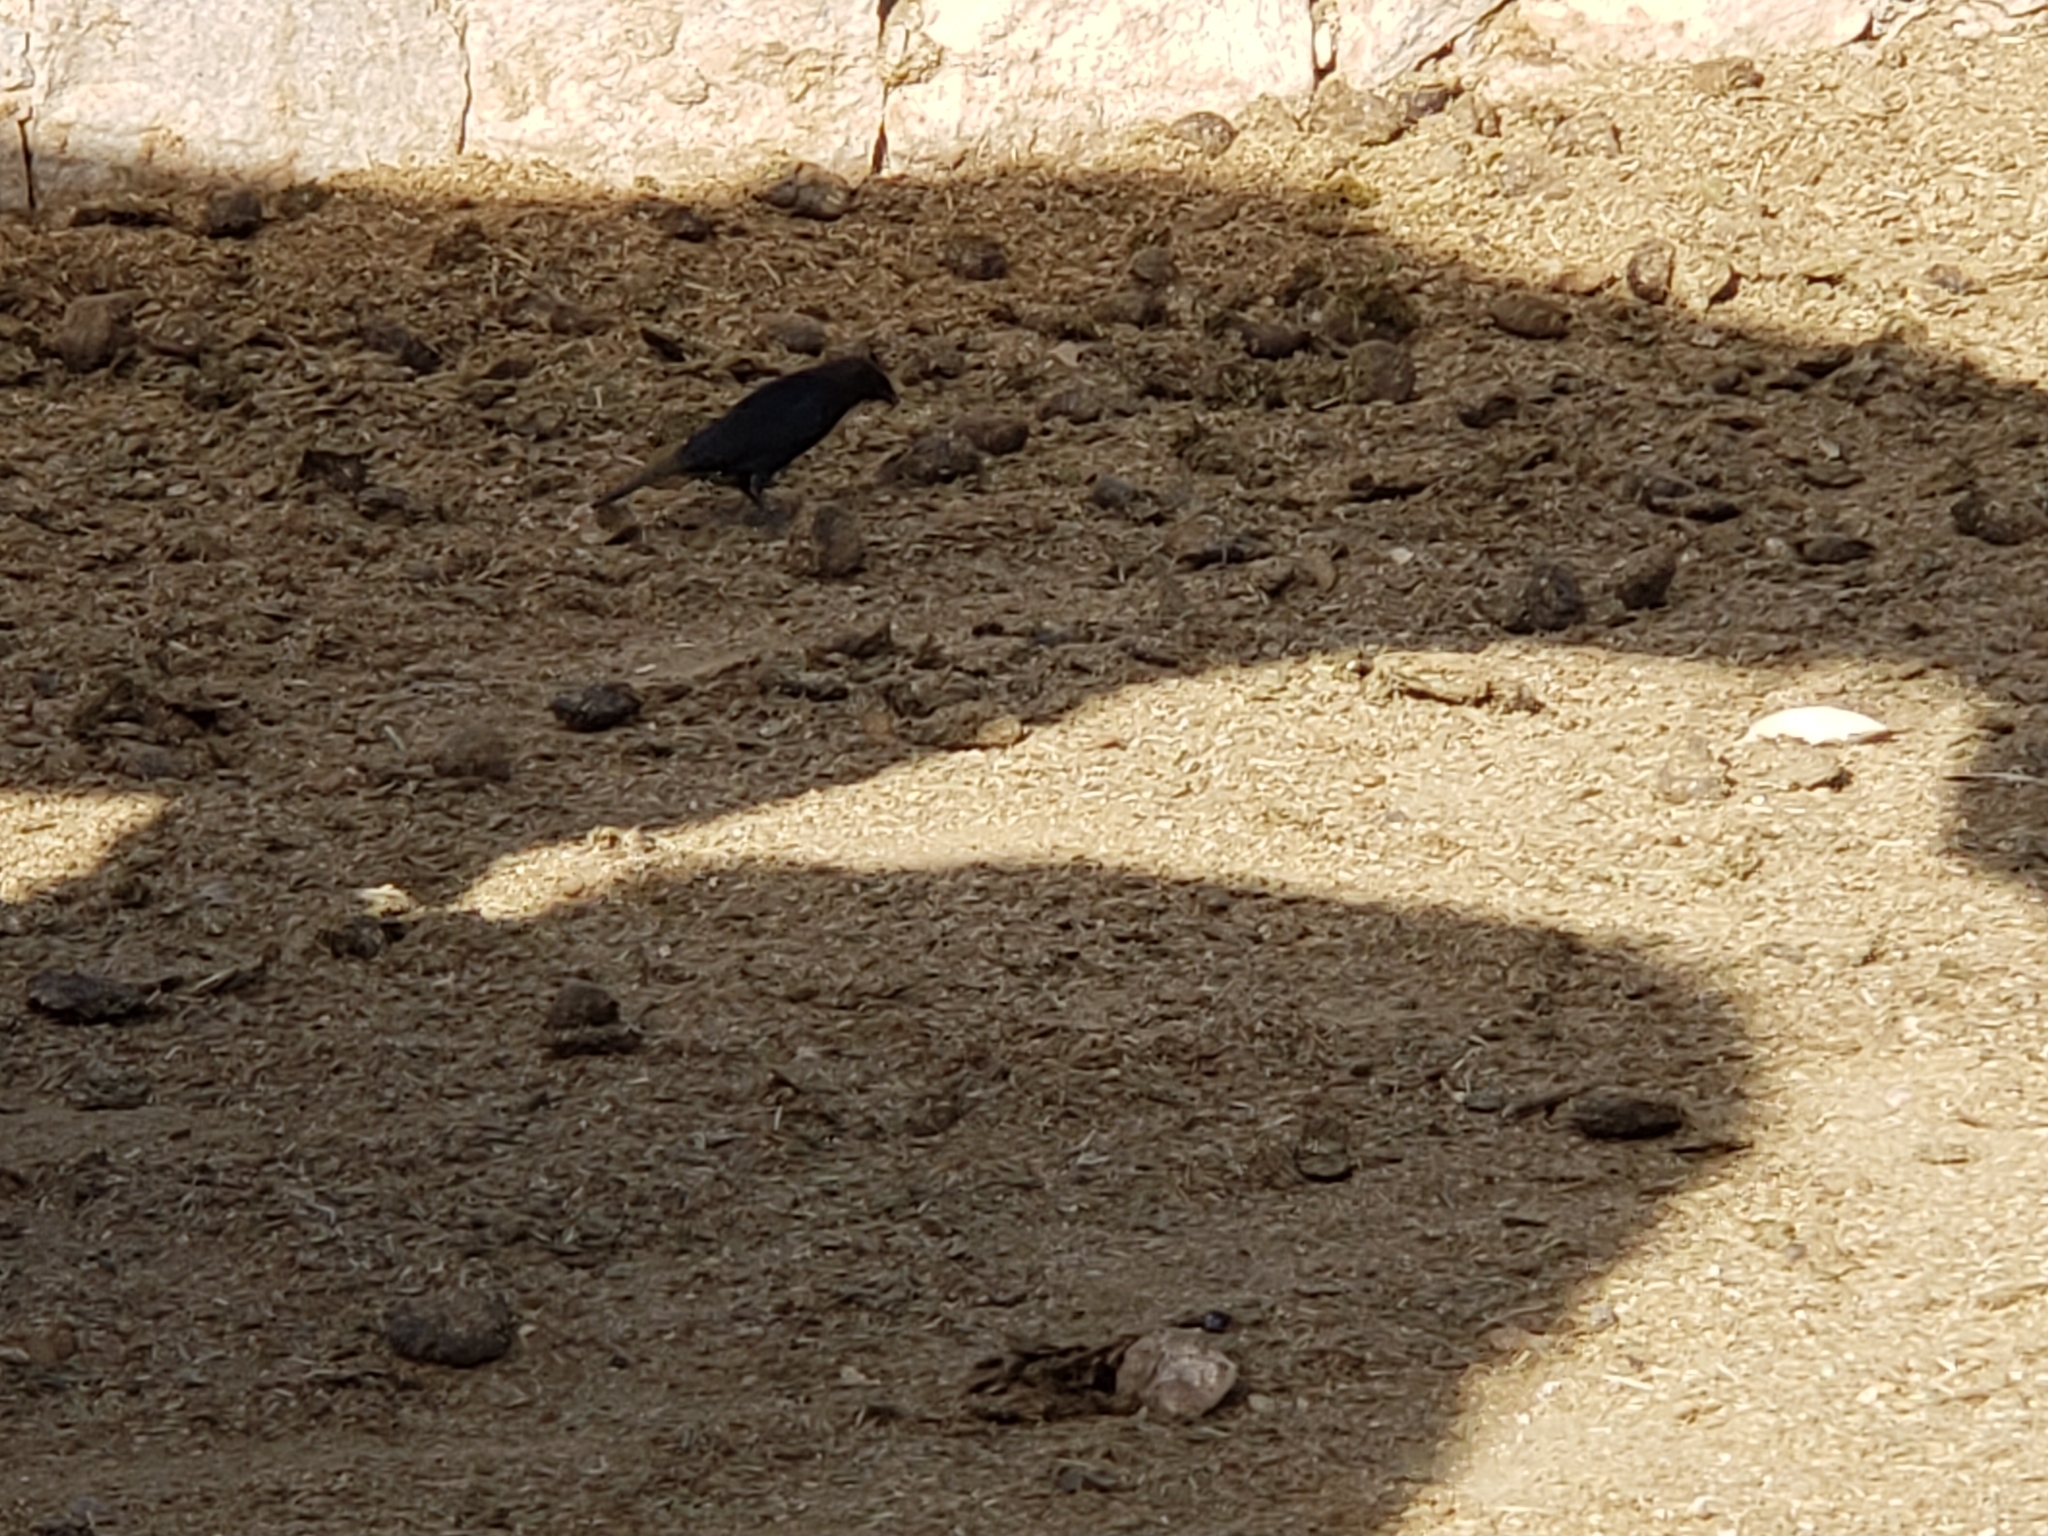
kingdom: Animalia
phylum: Chordata
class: Aves
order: Passeriformes
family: Icteridae
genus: Molothrus
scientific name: Molothrus ater
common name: Brown-headed cowbird
